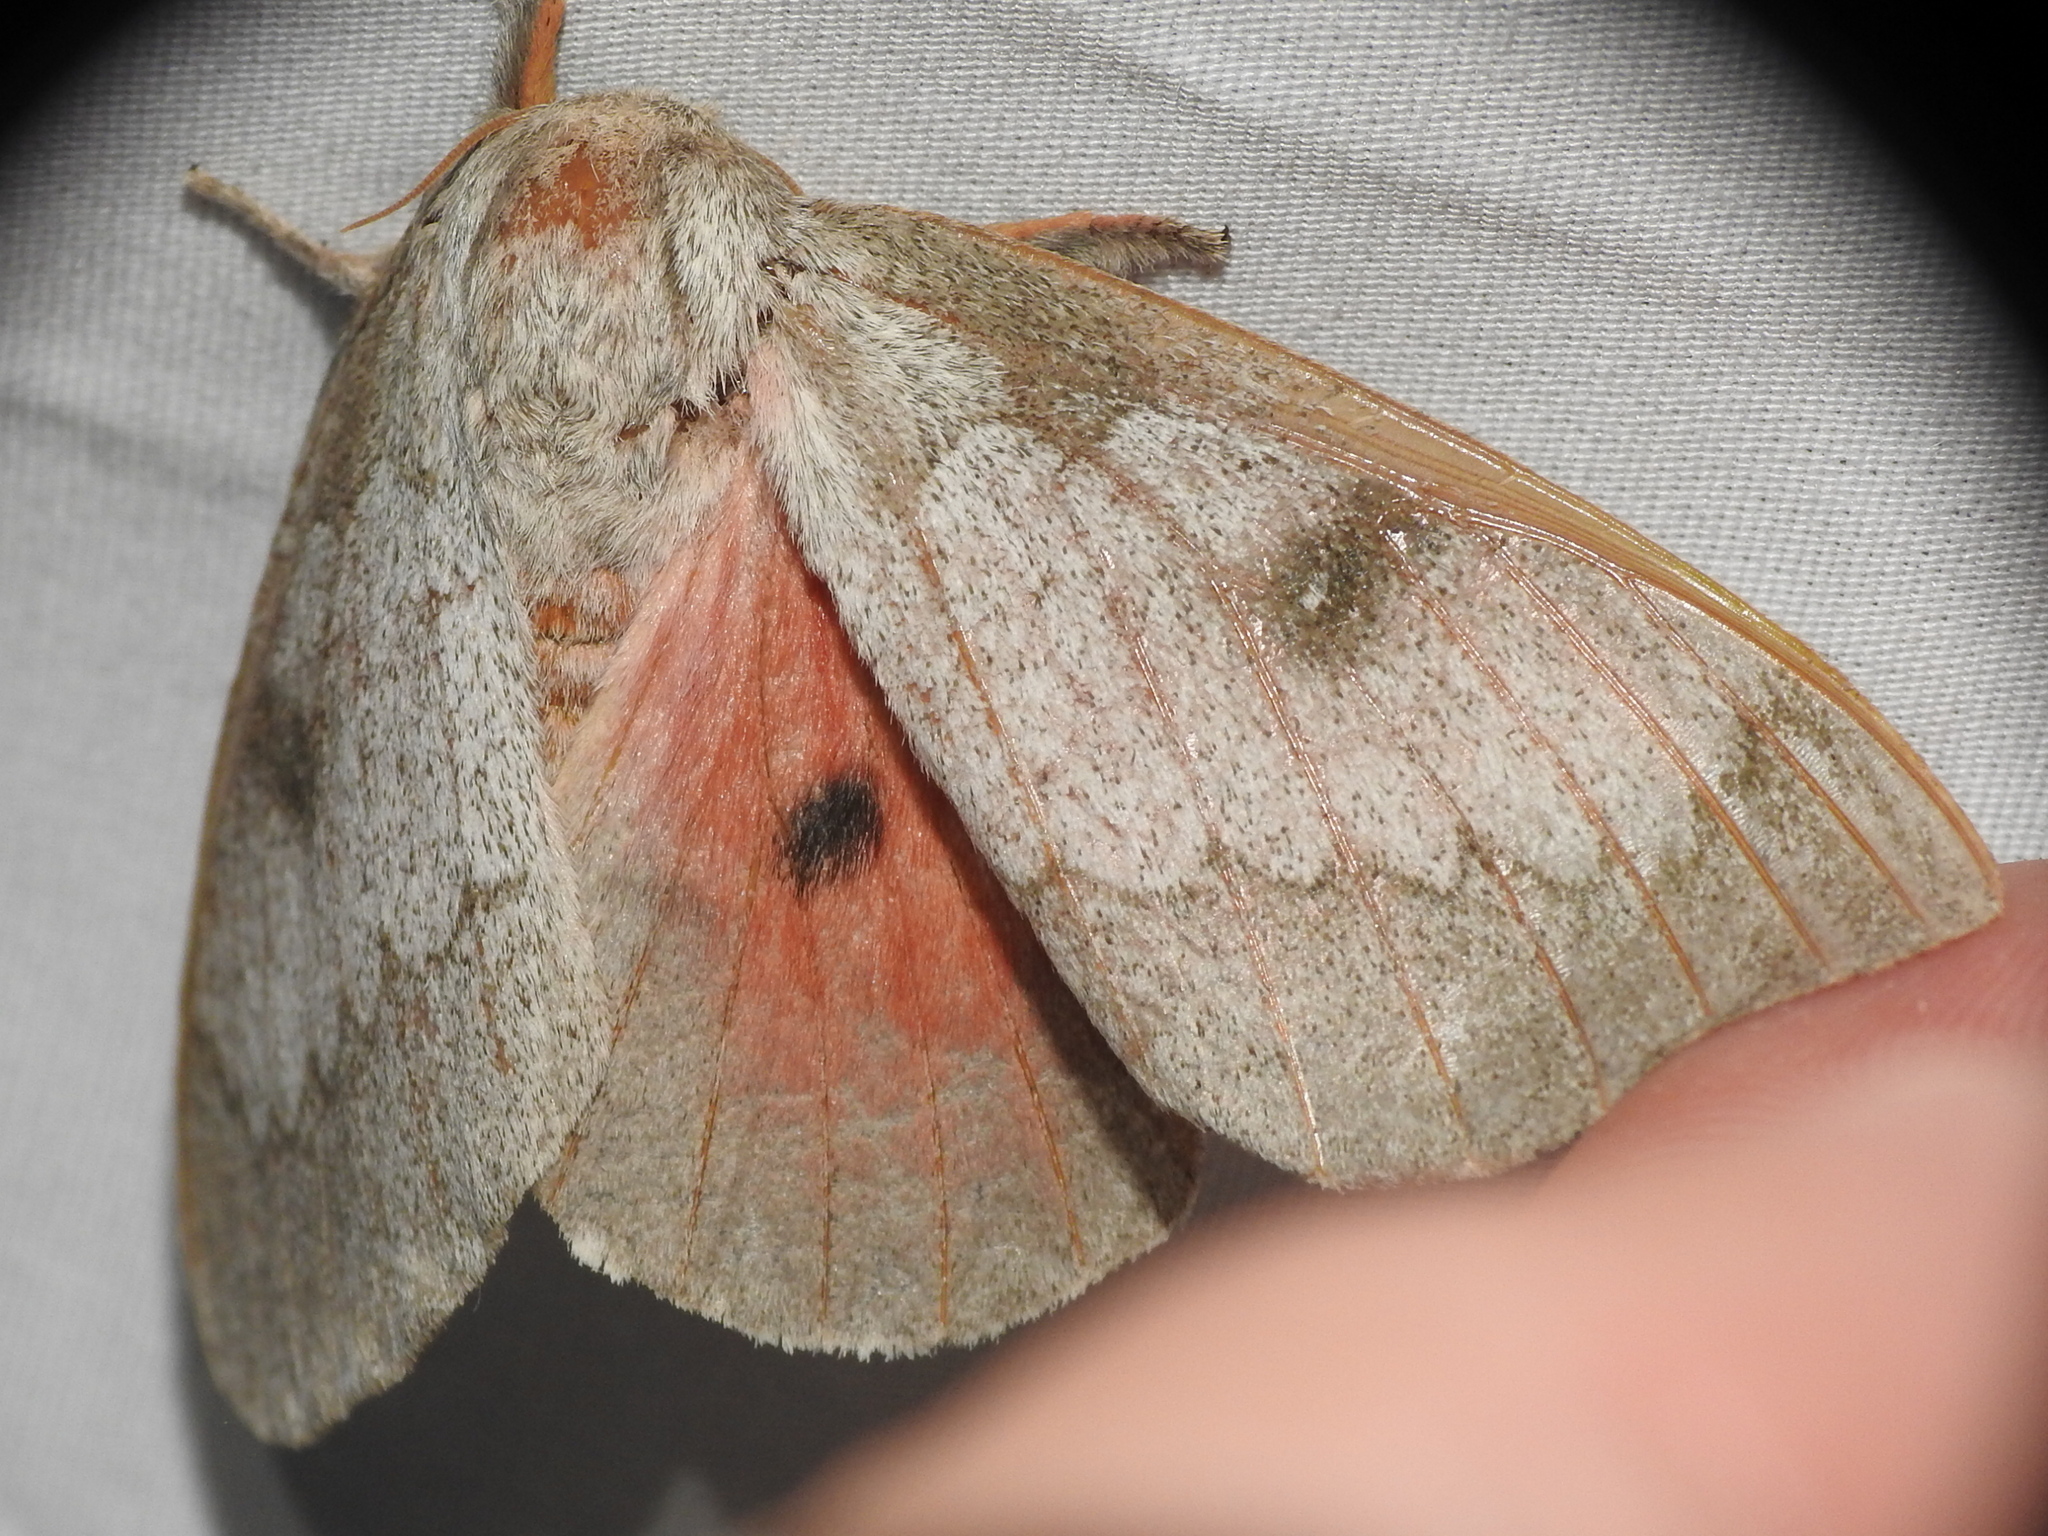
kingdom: Animalia
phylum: Arthropoda
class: Insecta
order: Lepidoptera
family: Saturniidae
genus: Syssphinx
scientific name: Syssphinx heiligbrodti
